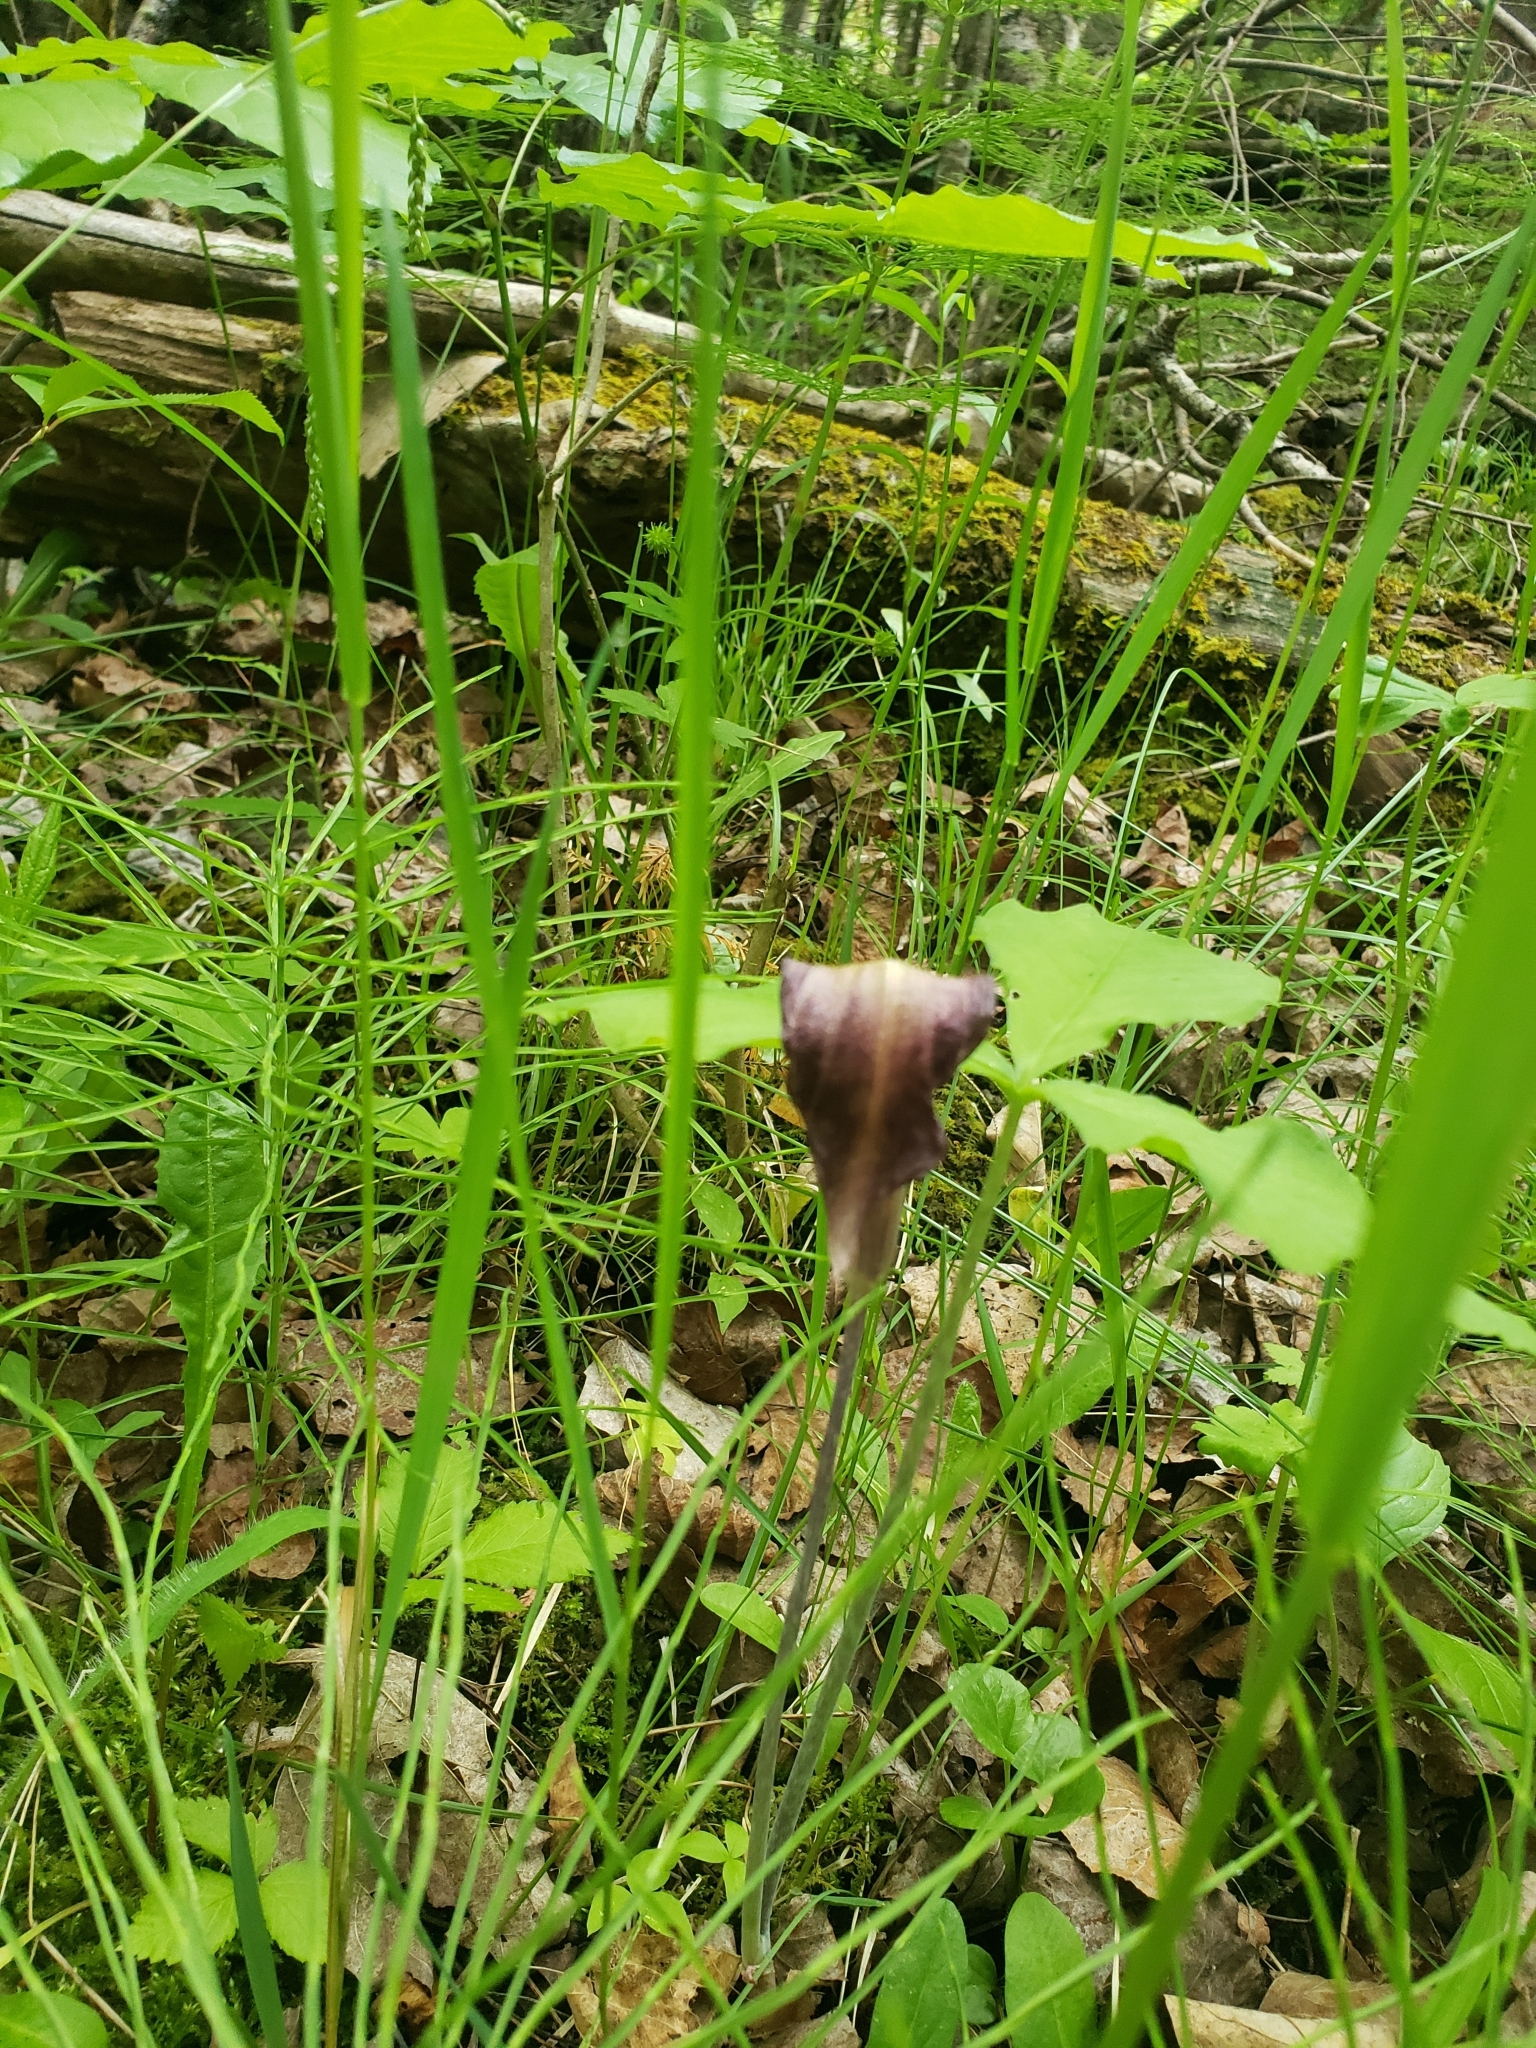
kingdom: Plantae
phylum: Tracheophyta
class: Liliopsida
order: Alismatales
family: Araceae
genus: Arisaema
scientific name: Arisaema triphyllum
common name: Jack-in-the-pulpit
